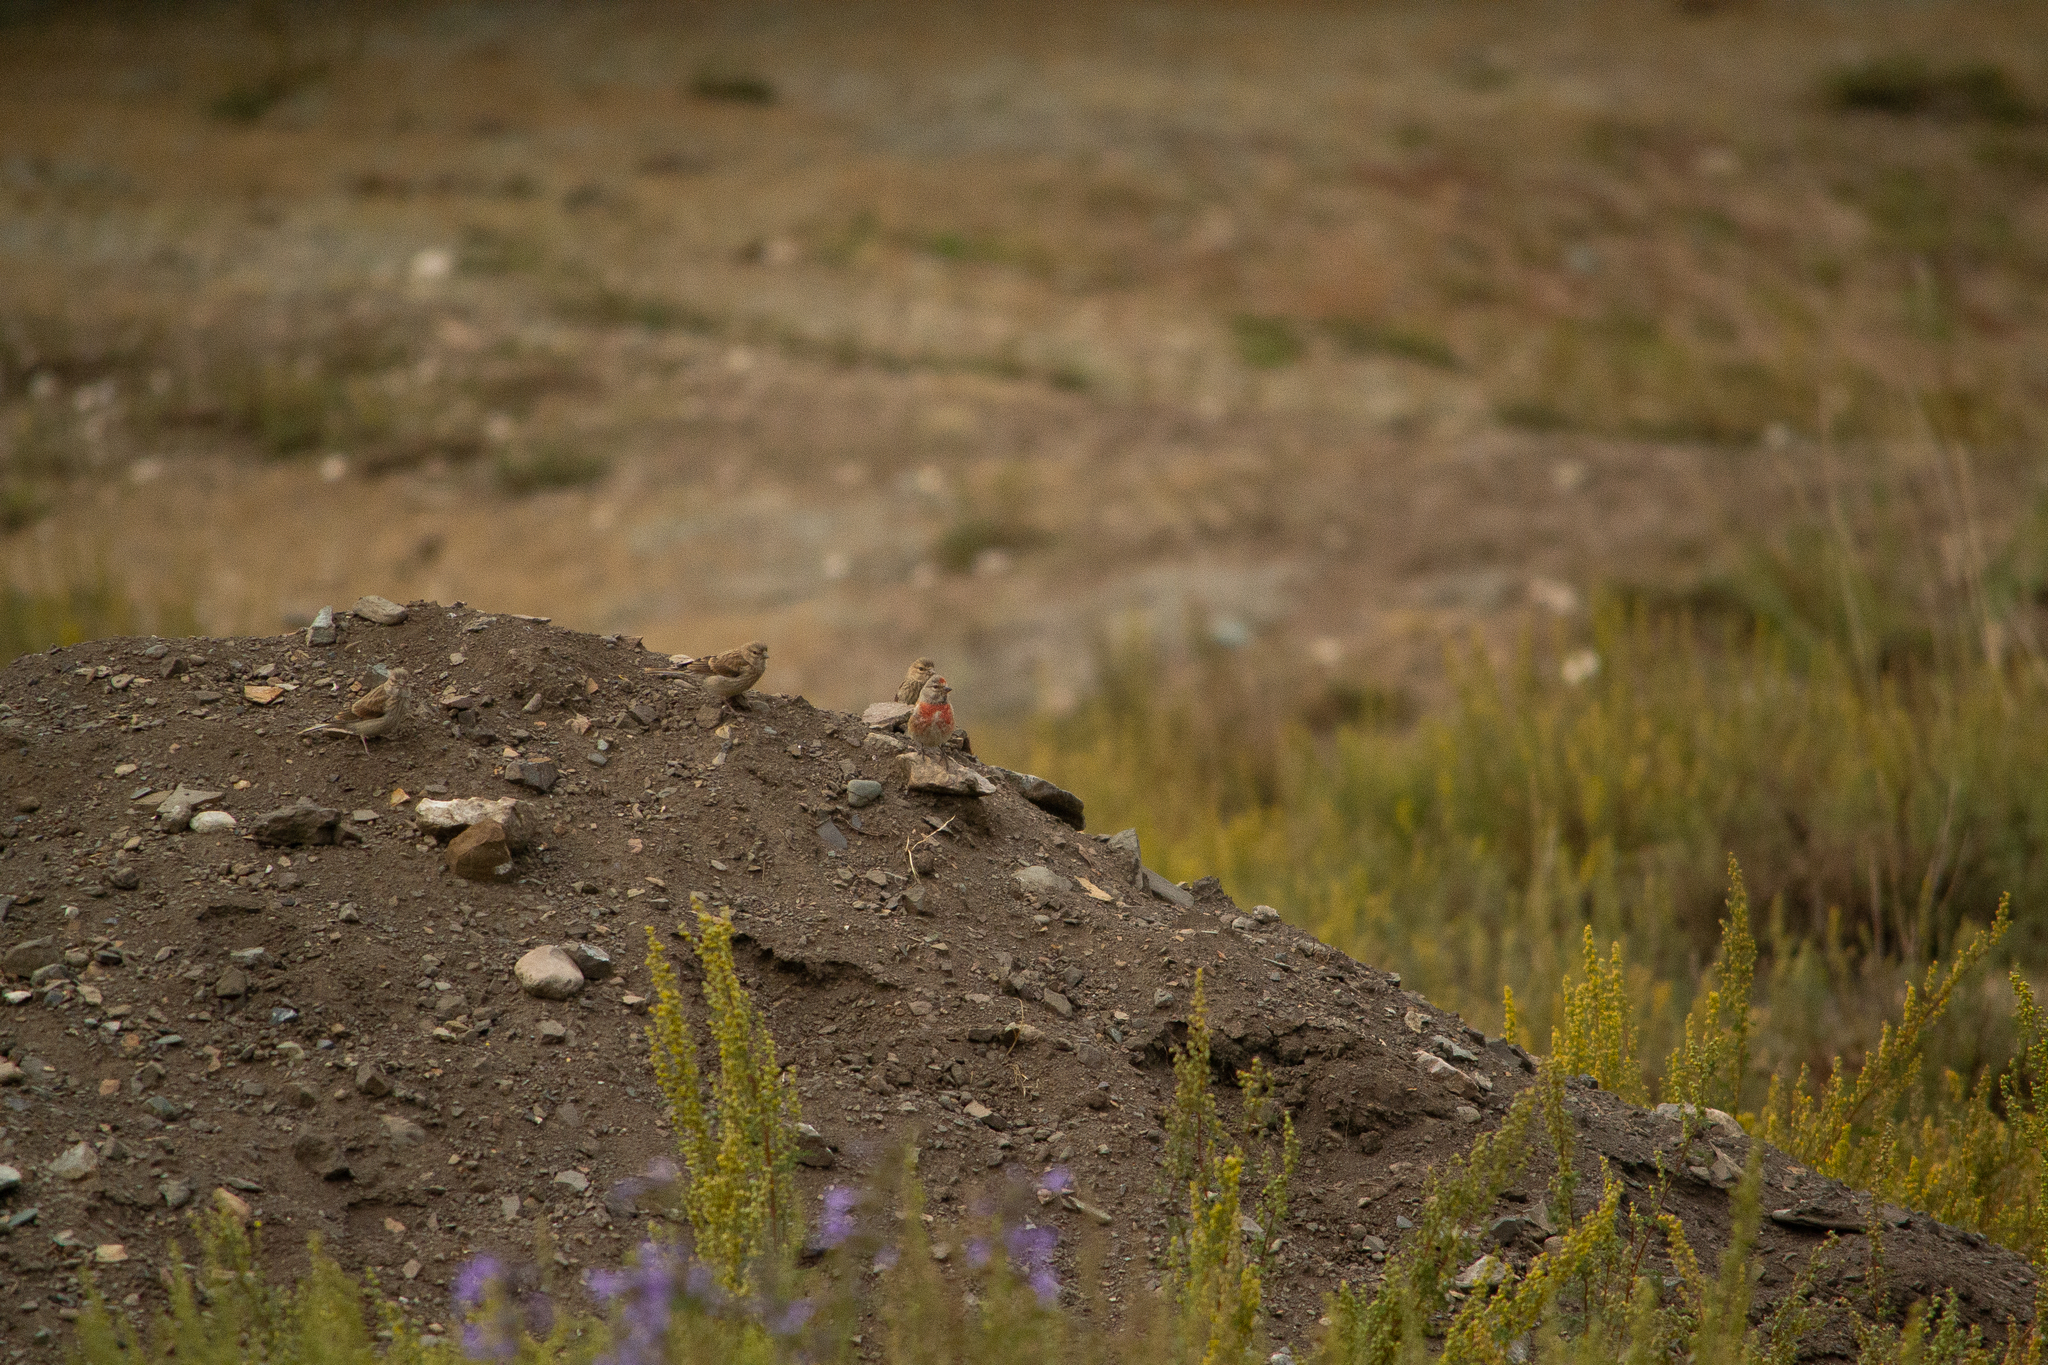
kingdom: Animalia
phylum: Chordata
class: Aves
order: Passeriformes
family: Fringillidae
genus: Linaria
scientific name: Linaria cannabina
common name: Common linnet
